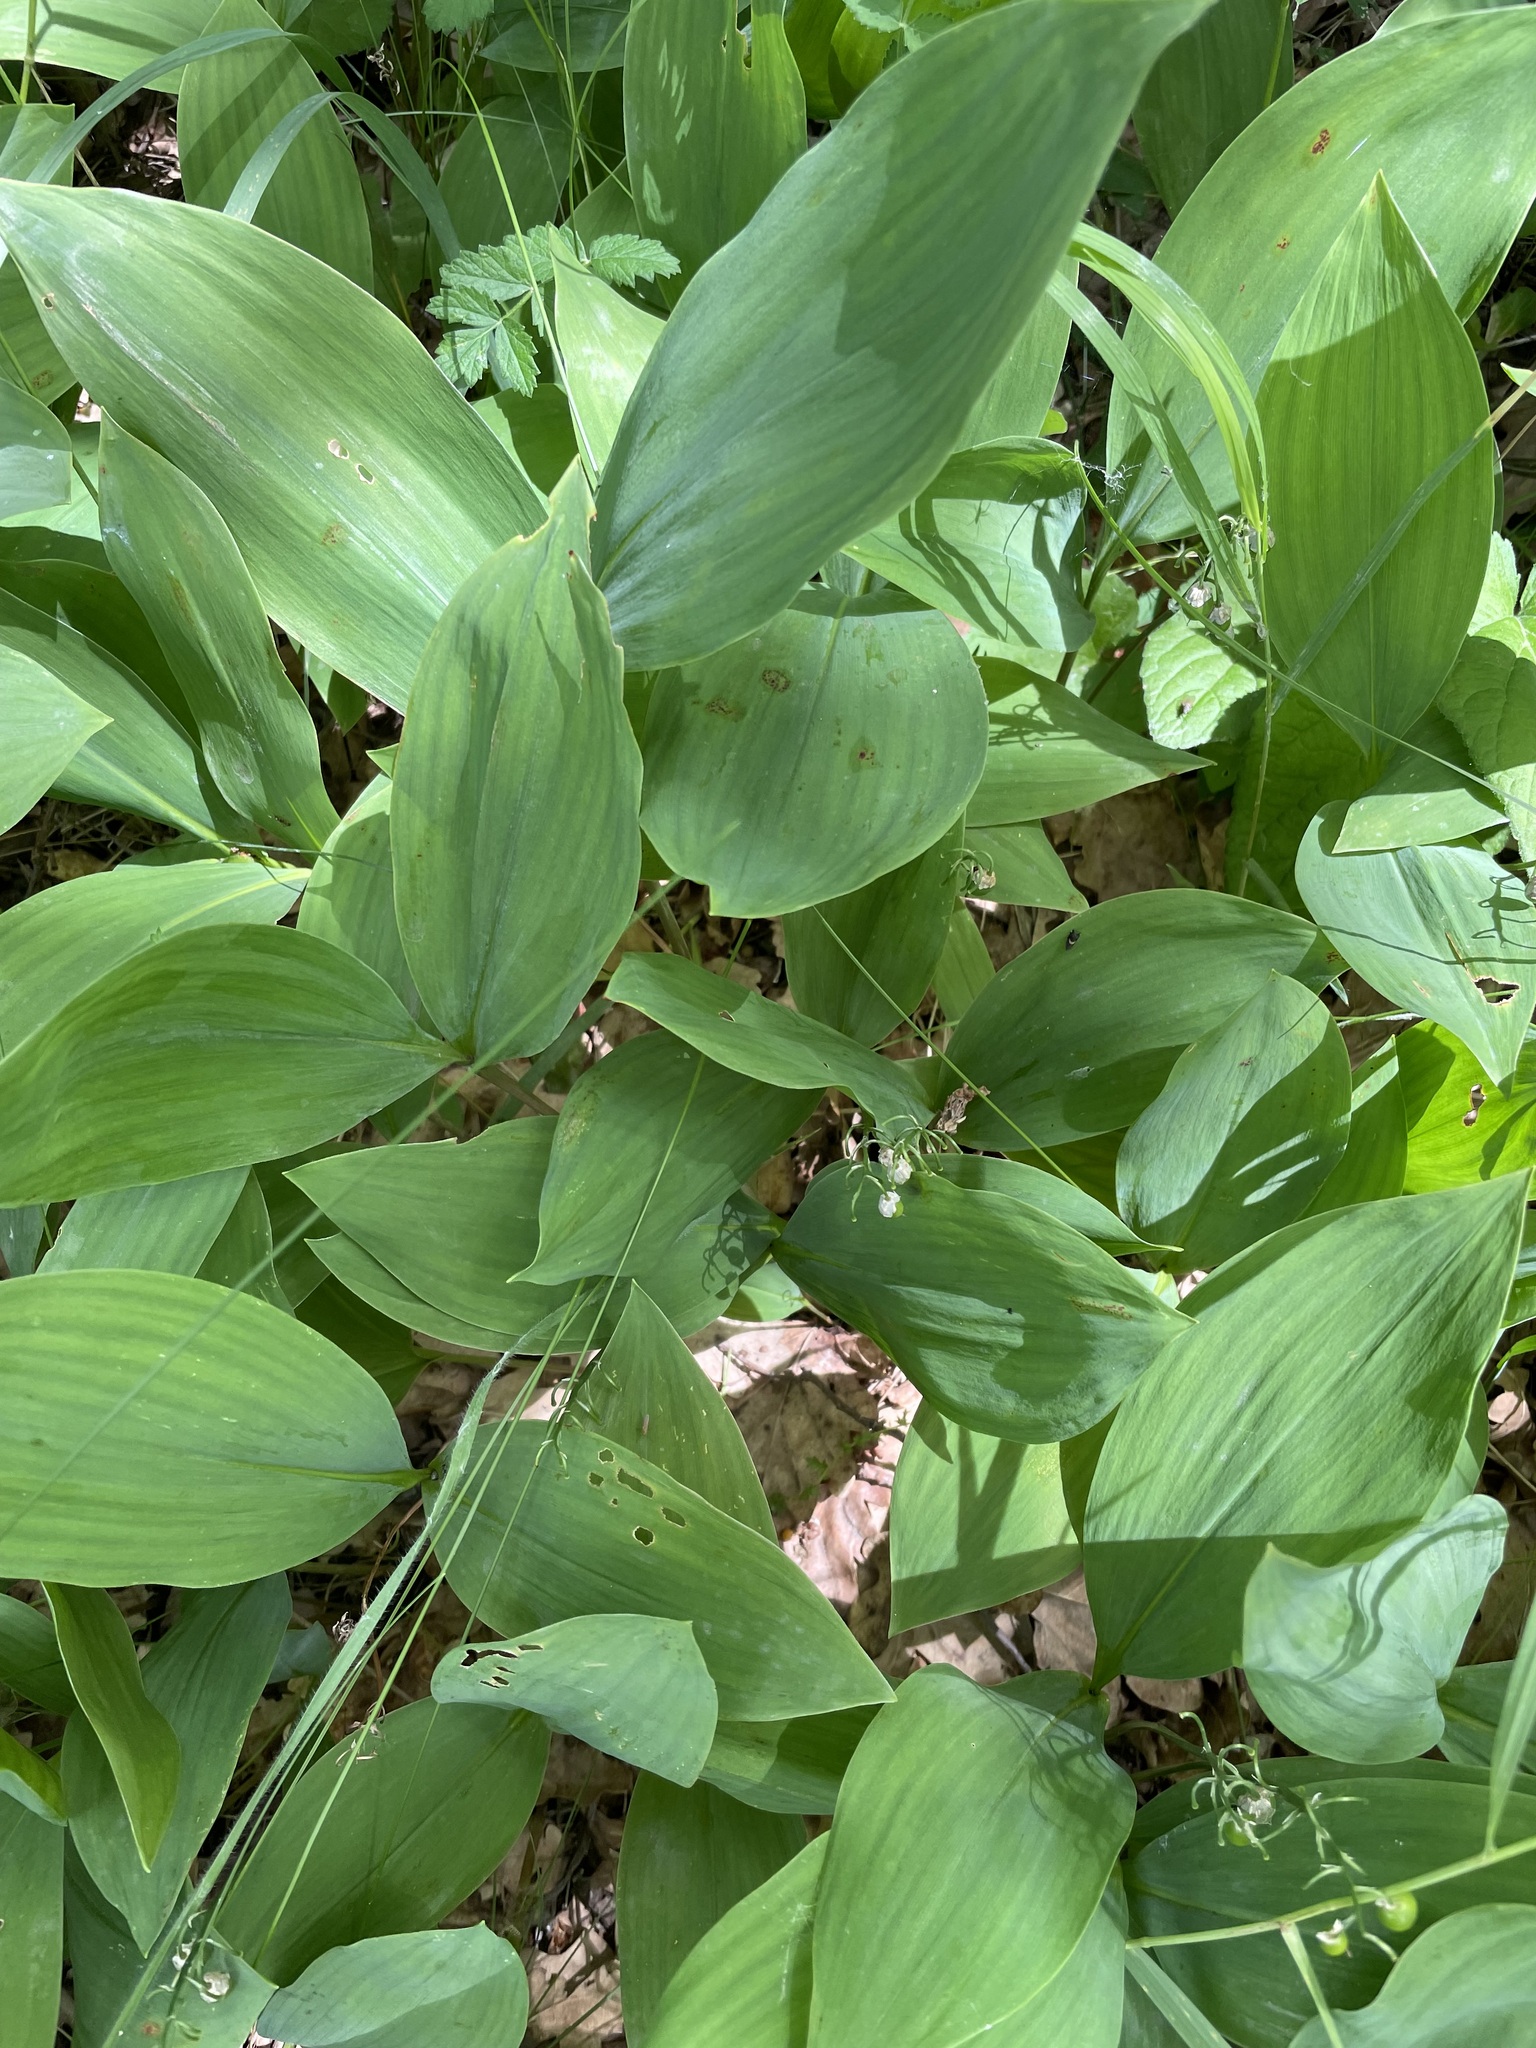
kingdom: Plantae
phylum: Tracheophyta
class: Liliopsida
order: Asparagales
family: Asparagaceae
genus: Convallaria
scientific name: Convallaria majalis
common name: Lily-of-the-valley
